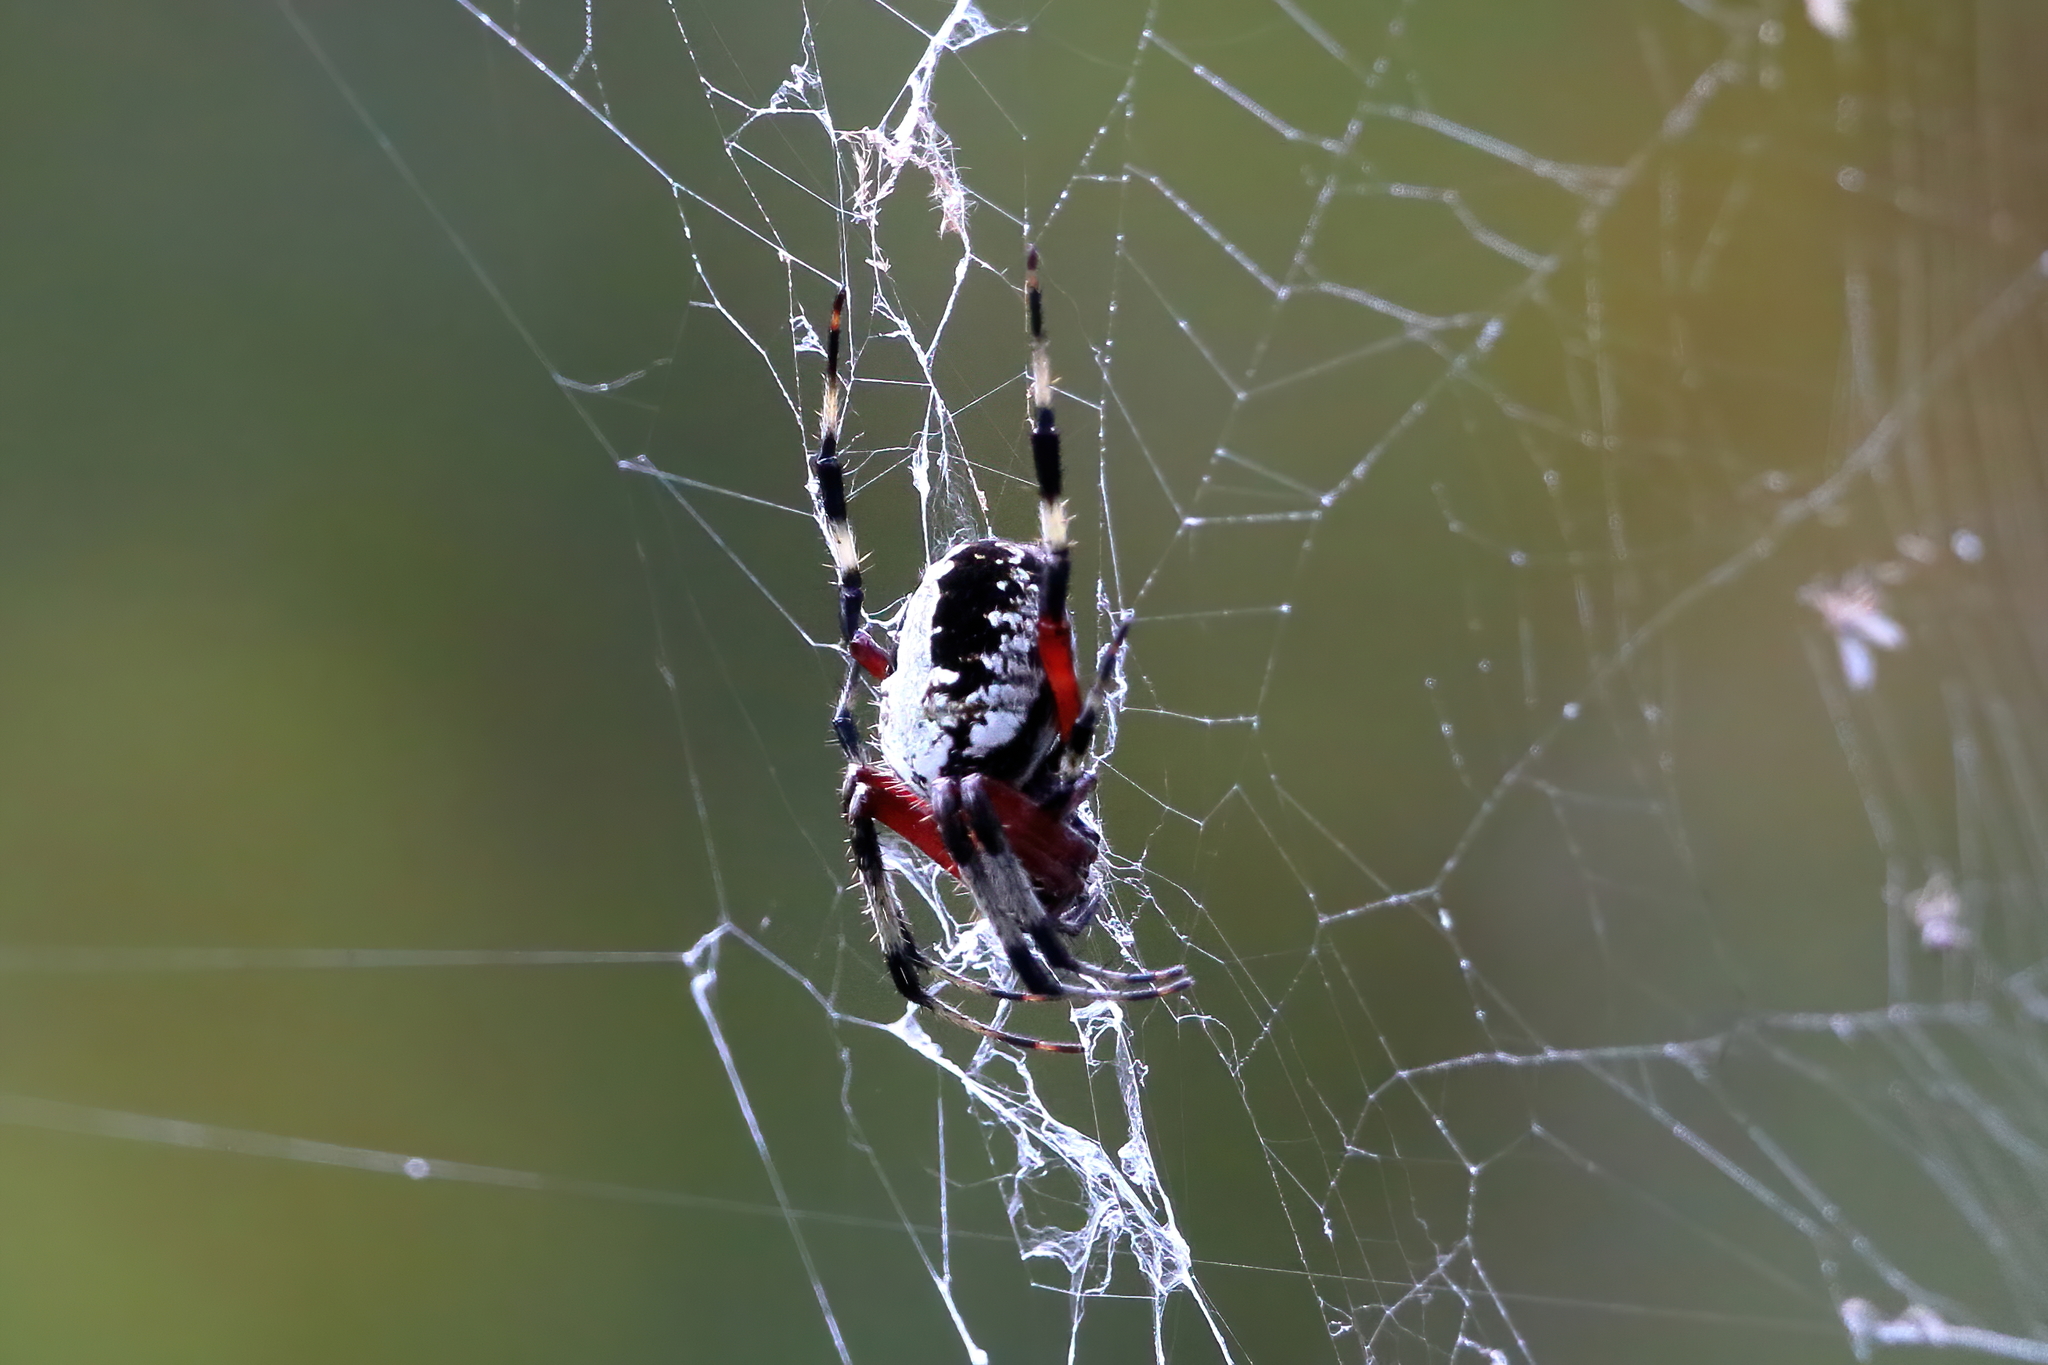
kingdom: Animalia
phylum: Arthropoda
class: Arachnida
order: Araneae
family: Araneidae
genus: Neoscona
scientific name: Neoscona domiciliorum
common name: Red-femured spotted orbweaver
